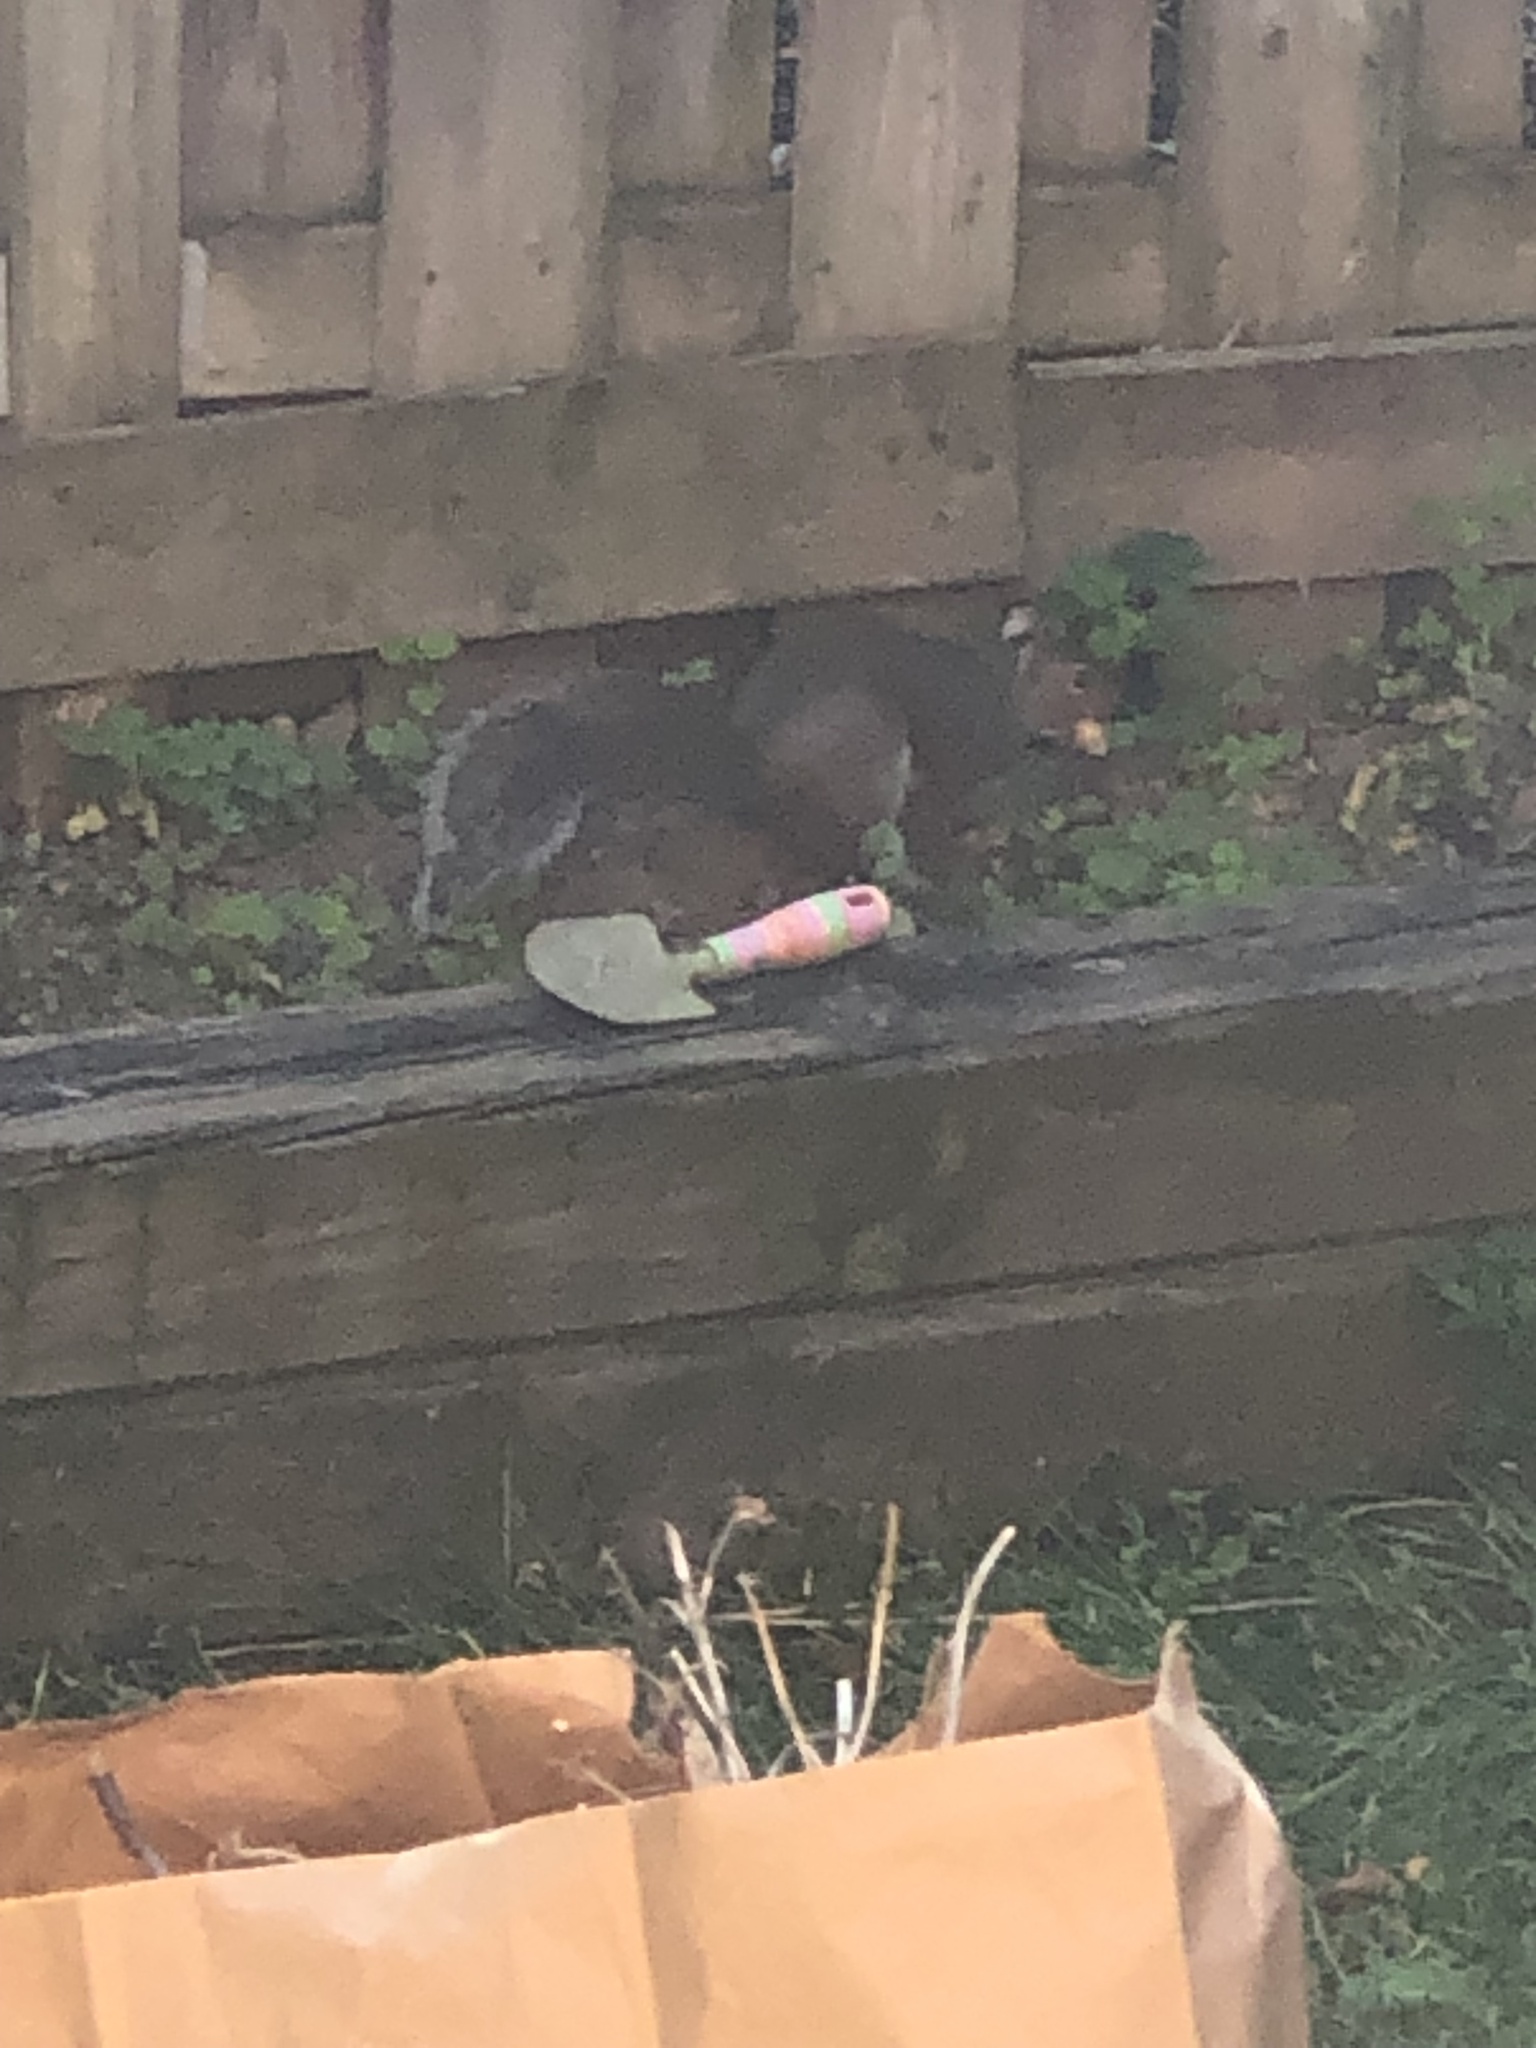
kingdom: Animalia
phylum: Chordata
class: Mammalia
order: Rodentia
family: Sciuridae
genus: Sciurus
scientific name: Sciurus carolinensis
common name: Eastern gray squirrel
